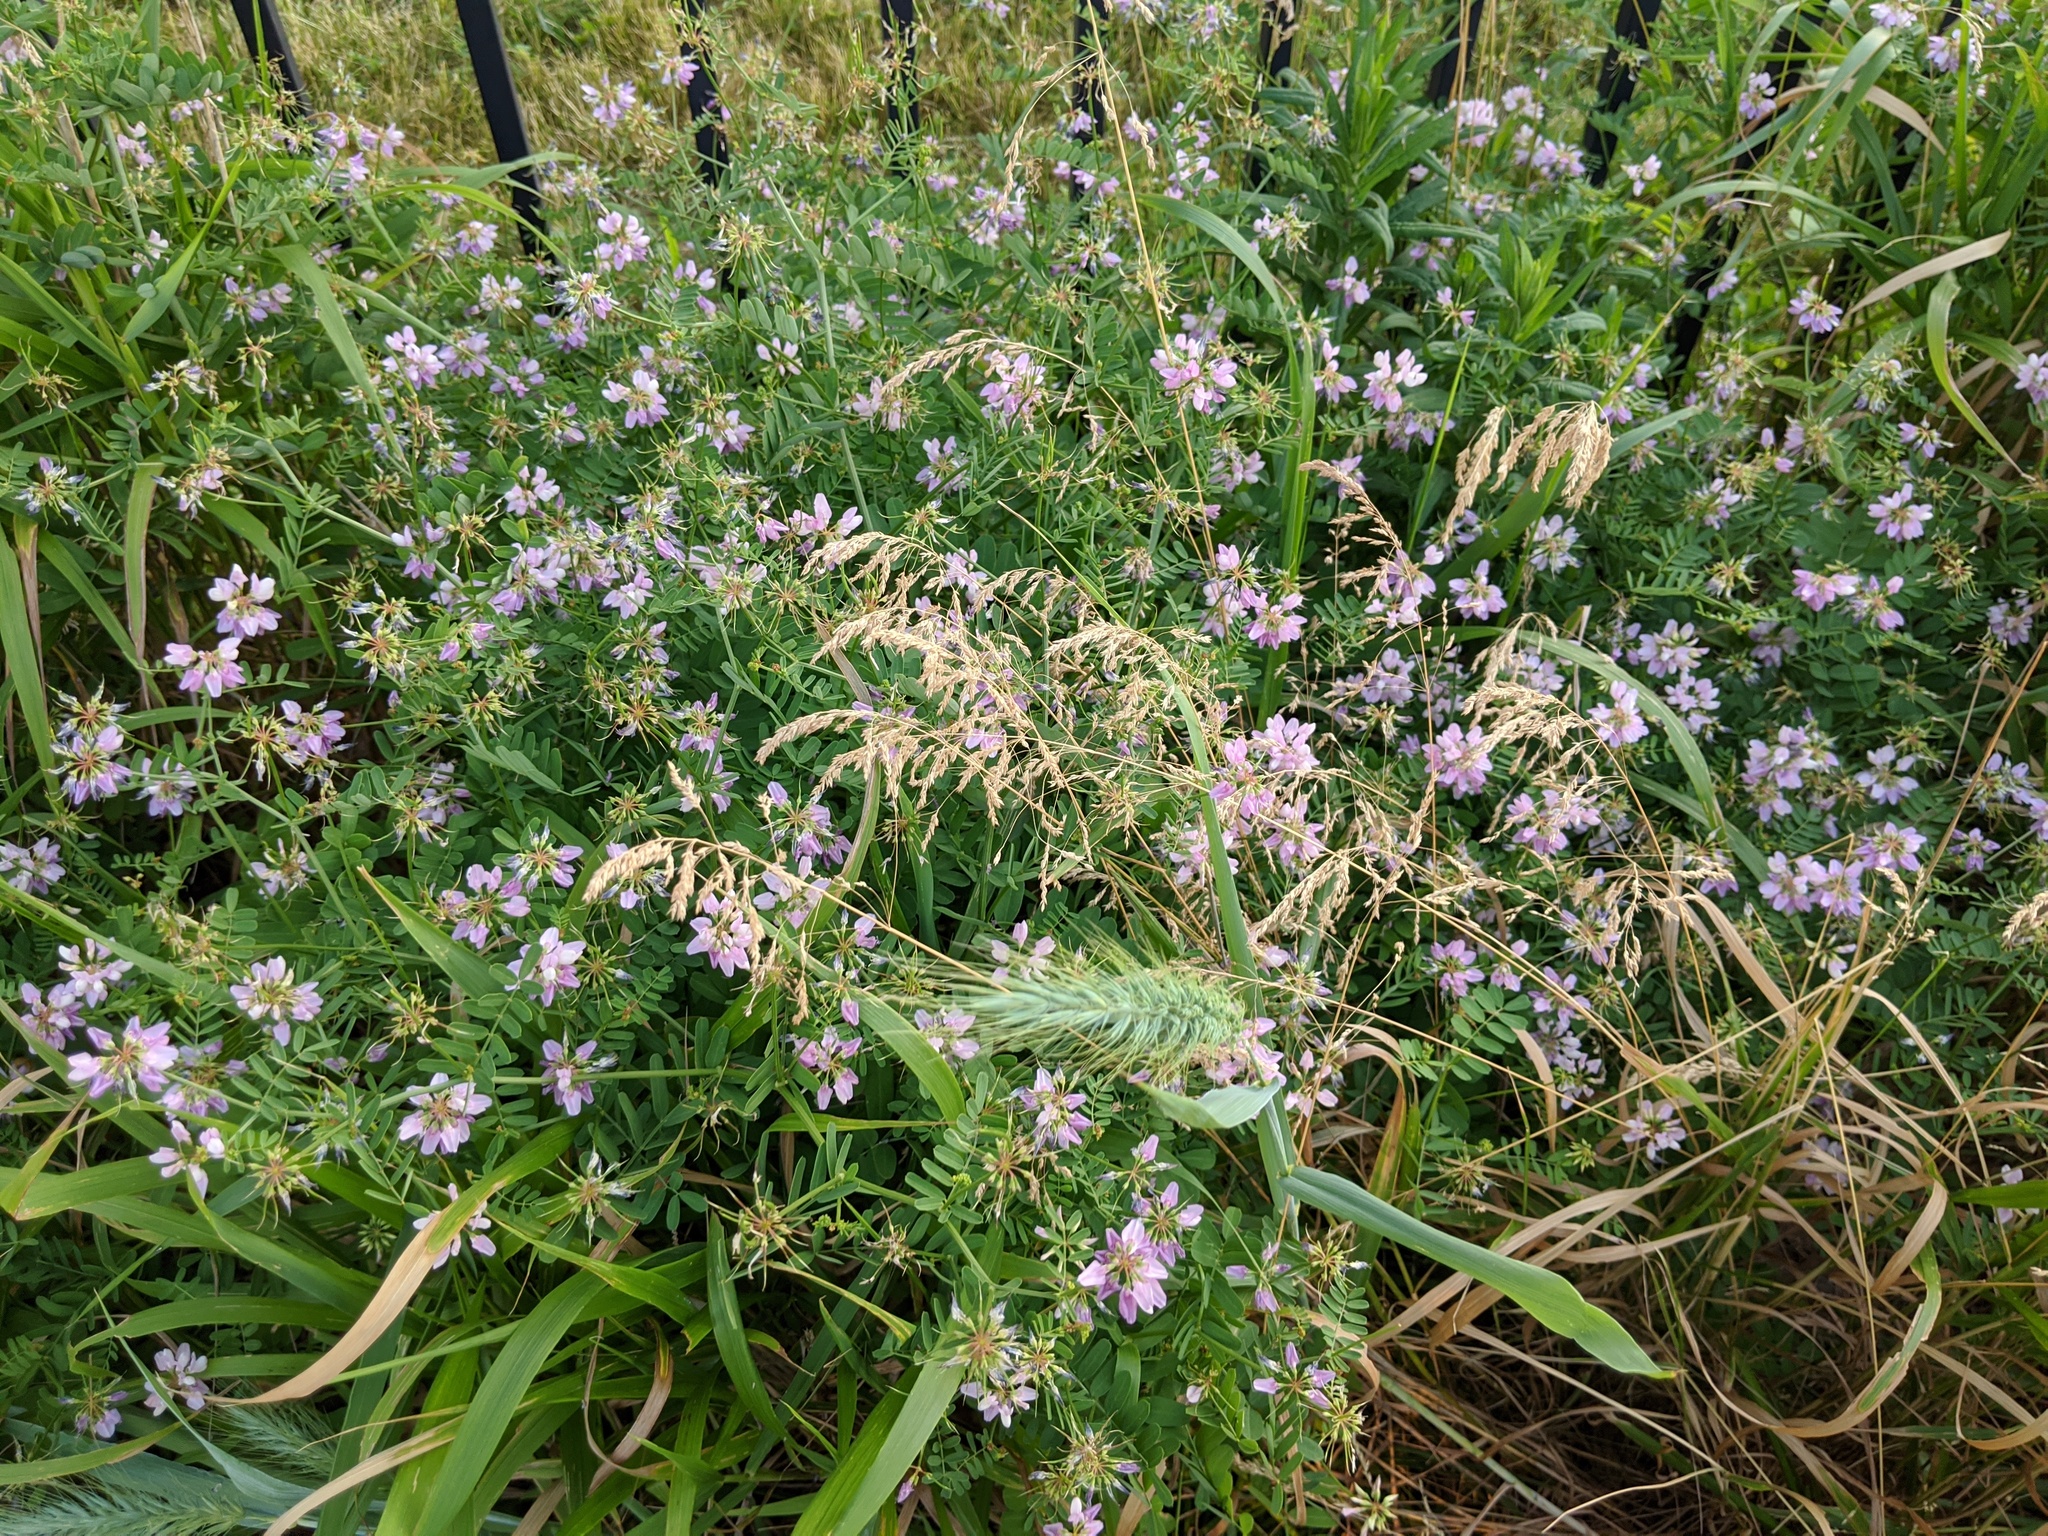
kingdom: Plantae
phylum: Tracheophyta
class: Magnoliopsida
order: Fabales
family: Fabaceae
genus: Coronilla
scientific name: Coronilla varia
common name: Crownvetch
